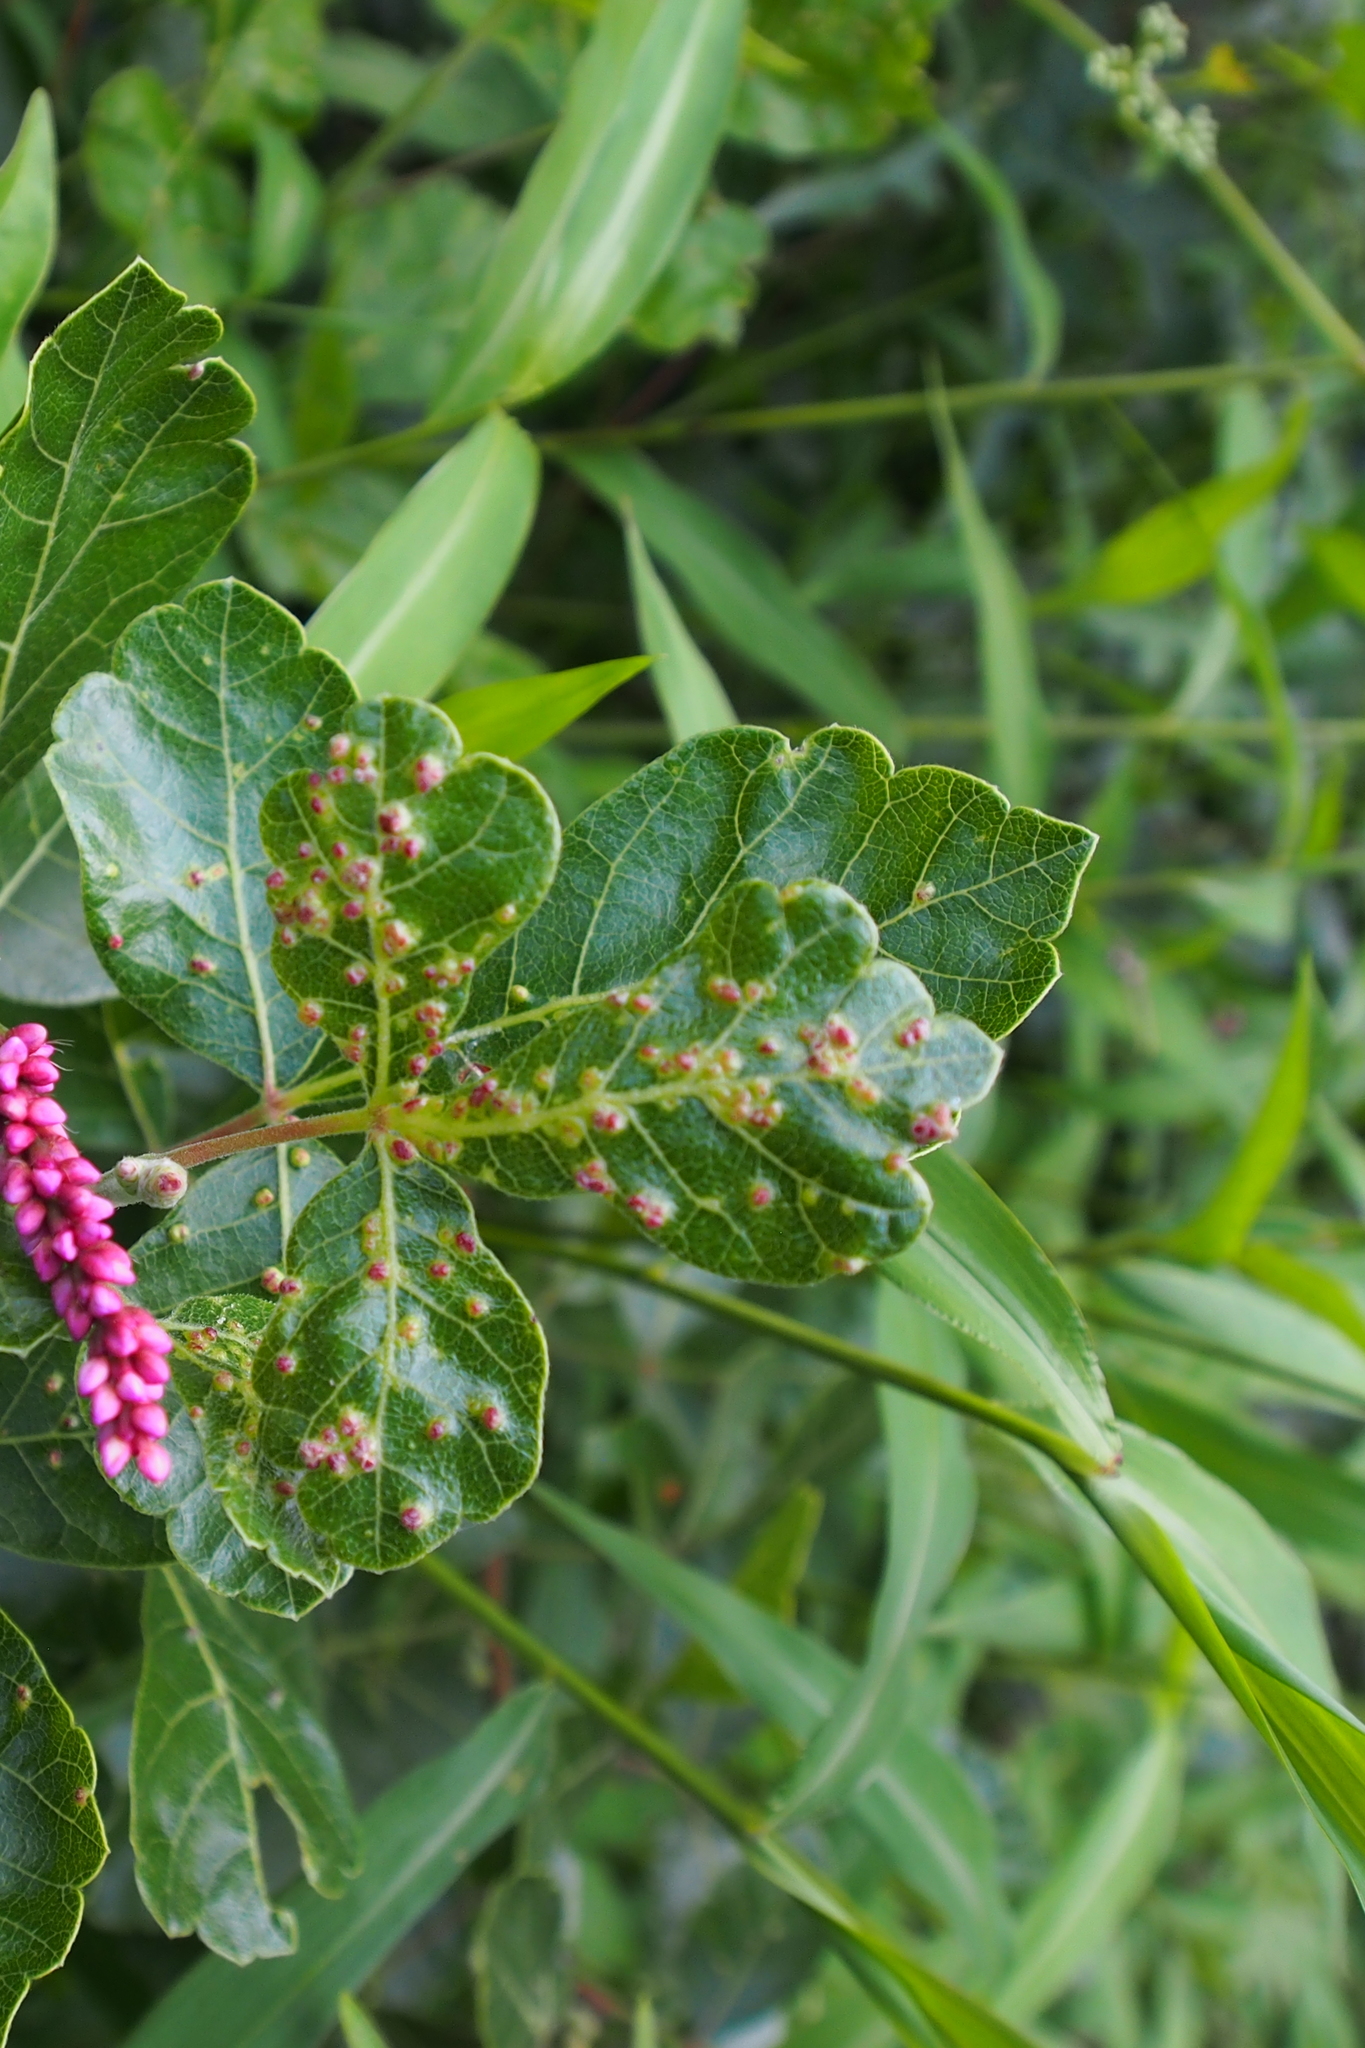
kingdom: Animalia
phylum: Arthropoda
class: Arachnida
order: Trombidiformes
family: Eriophyidae
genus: Aculops
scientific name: Aculops
